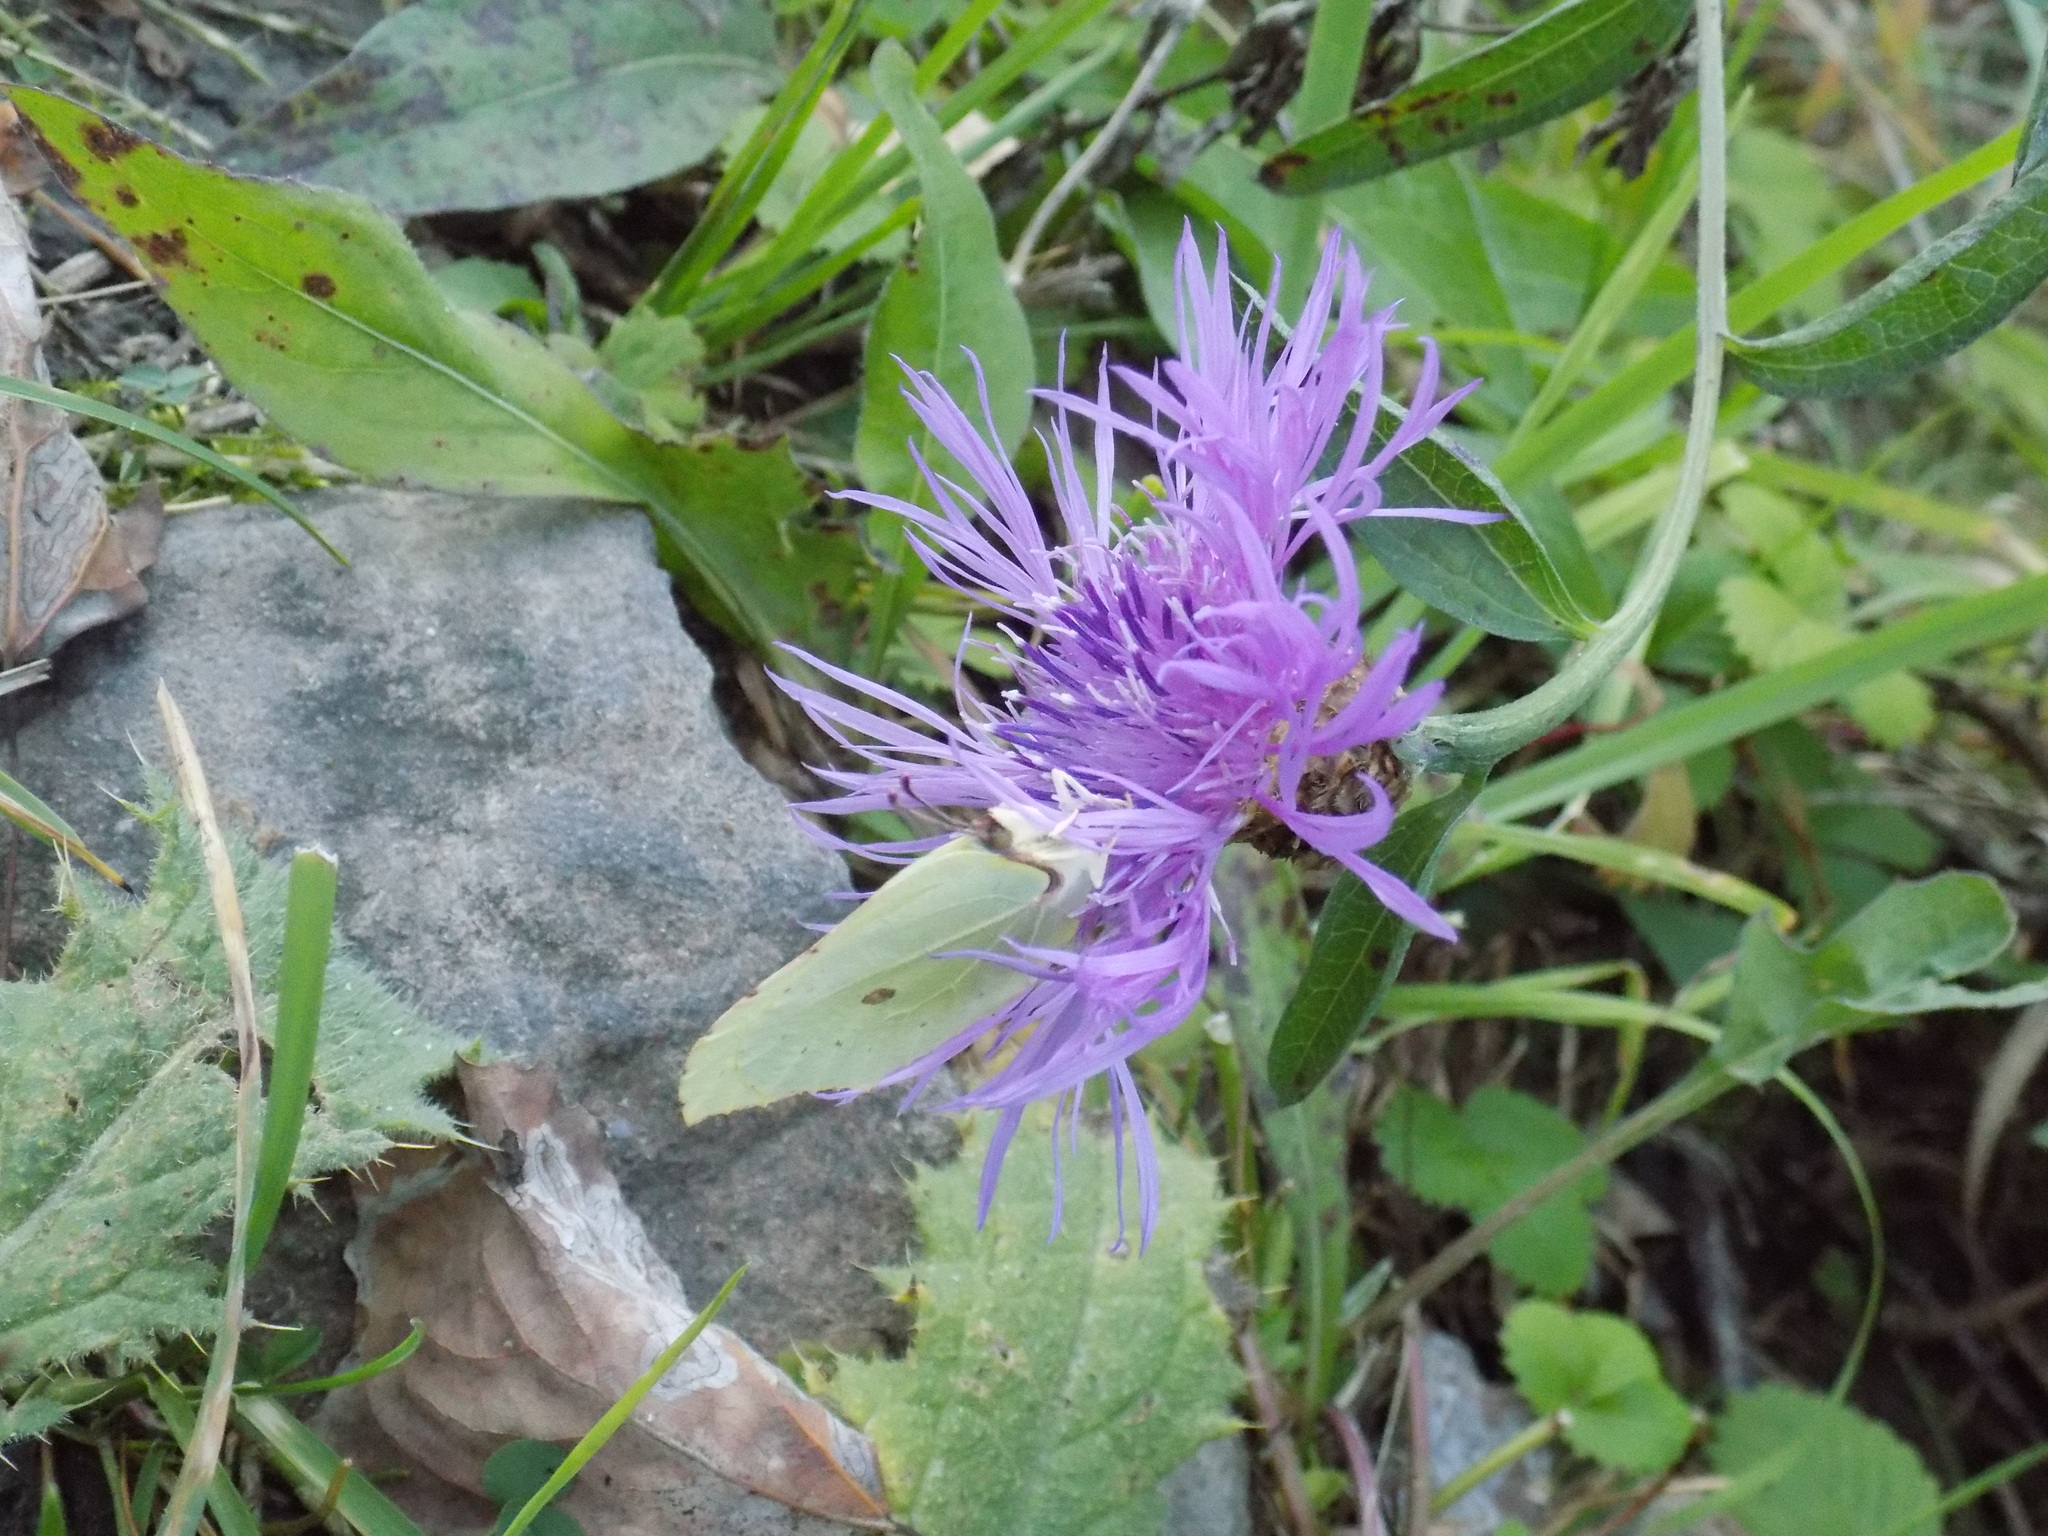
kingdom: Animalia
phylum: Arthropoda
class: Insecta
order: Lepidoptera
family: Pieridae
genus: Gonepteryx
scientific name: Gonepteryx rhamni
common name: Brimstone
